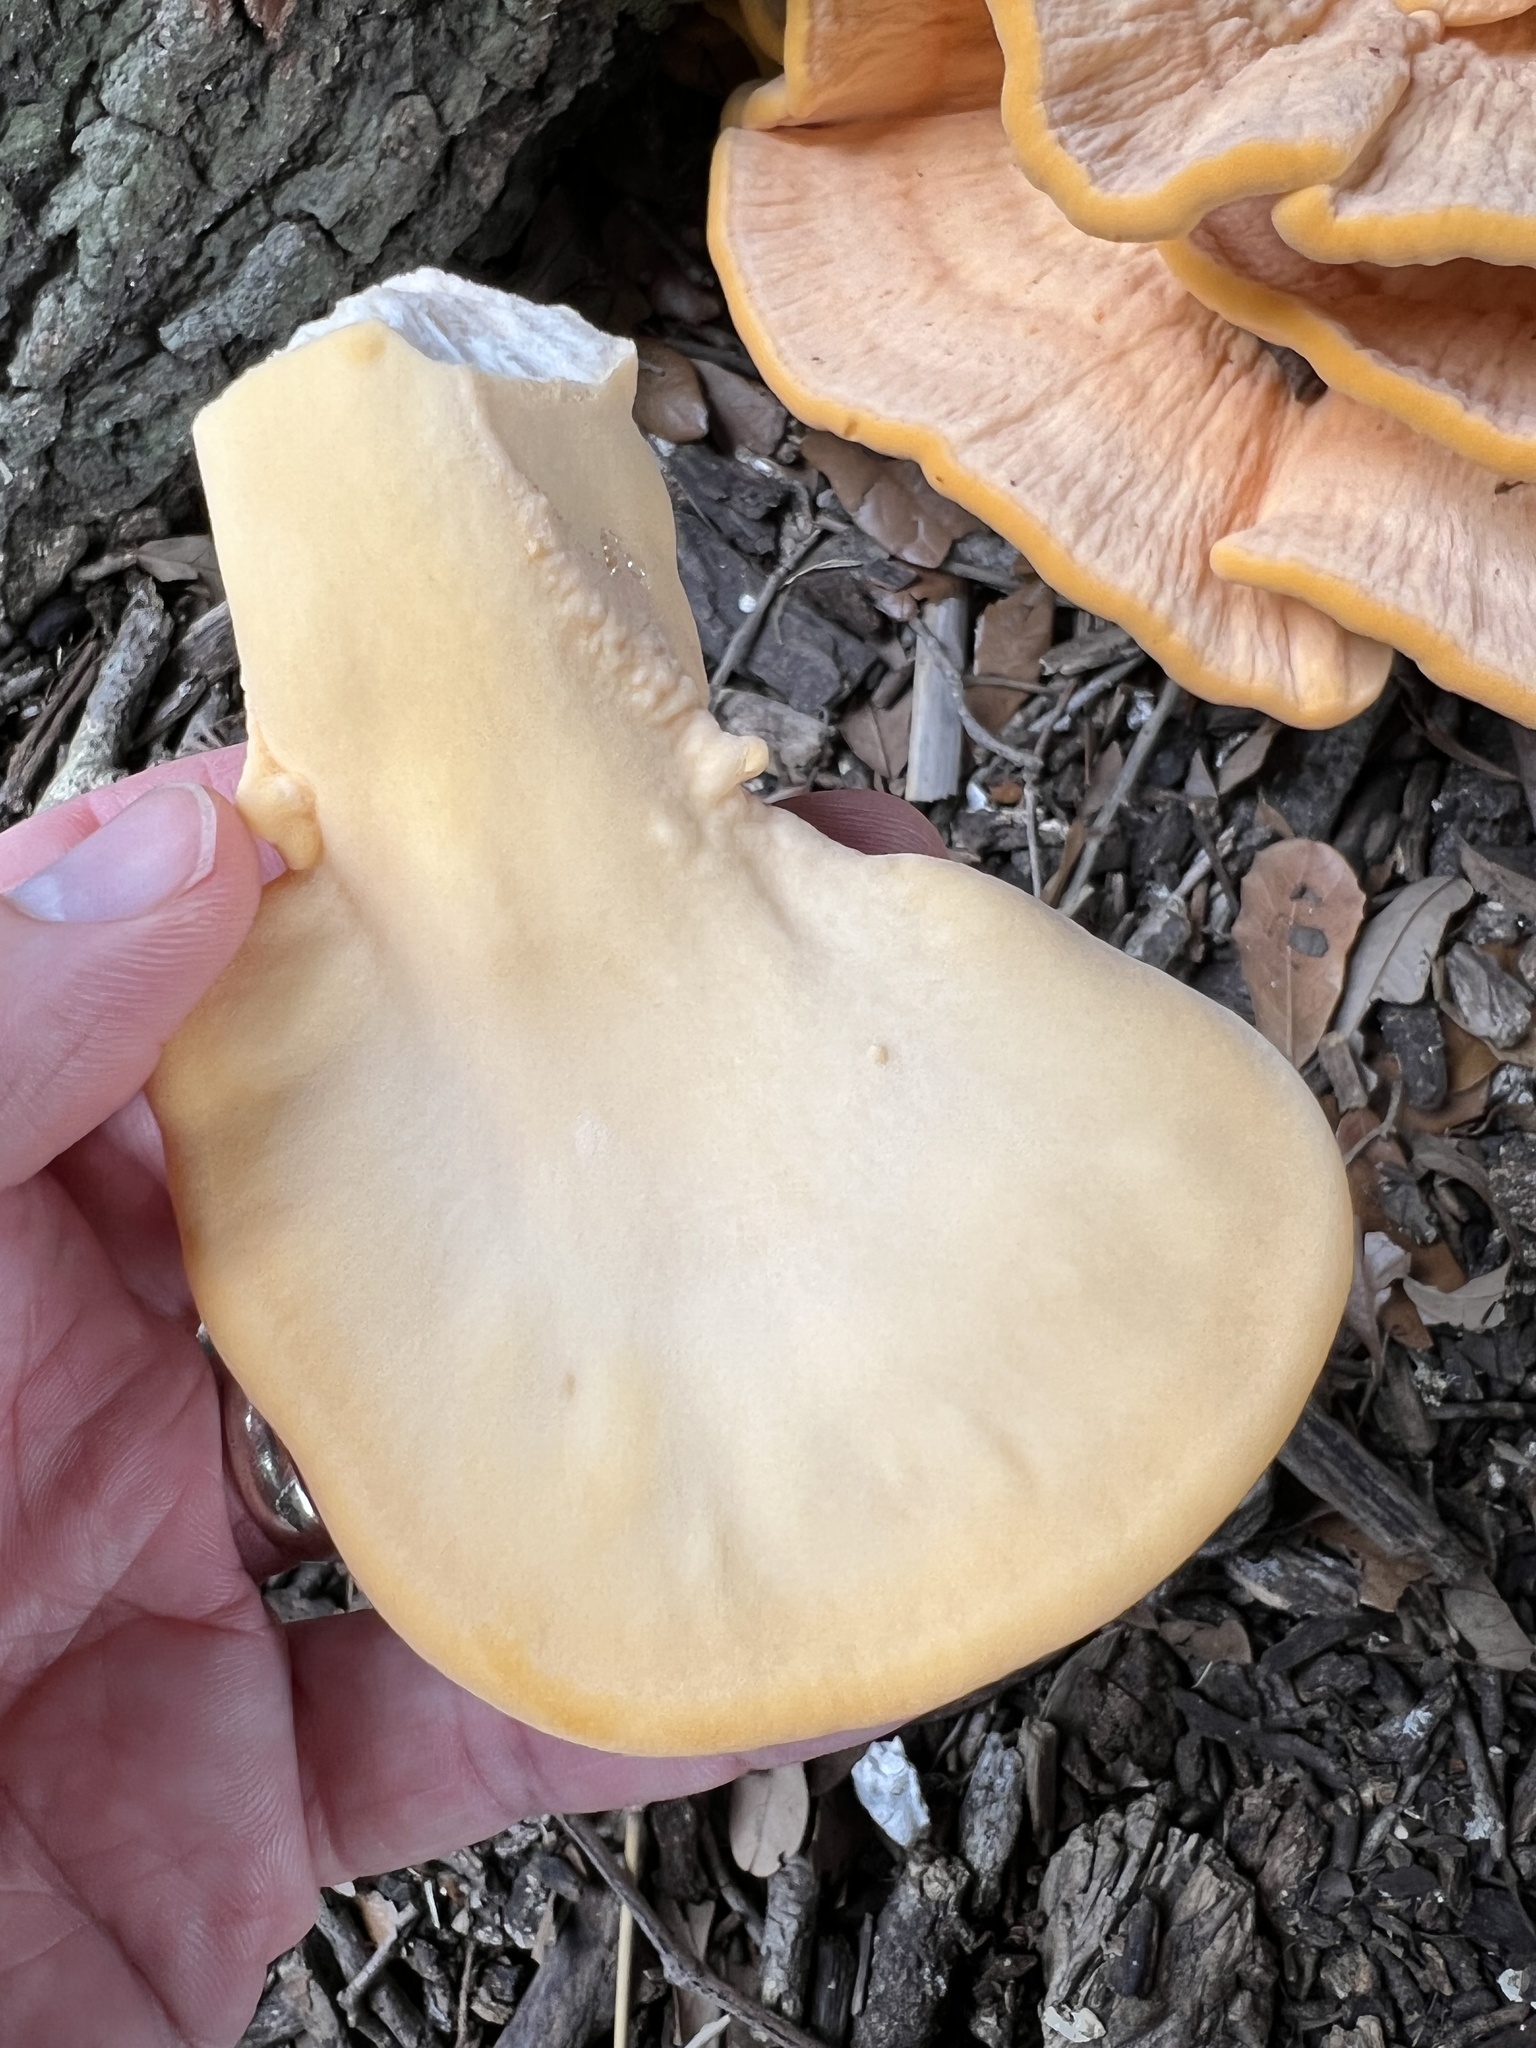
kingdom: Fungi
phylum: Basidiomycota
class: Agaricomycetes
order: Polyporales
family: Laetiporaceae
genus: Laetiporus
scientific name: Laetiporus gilbertsonii
